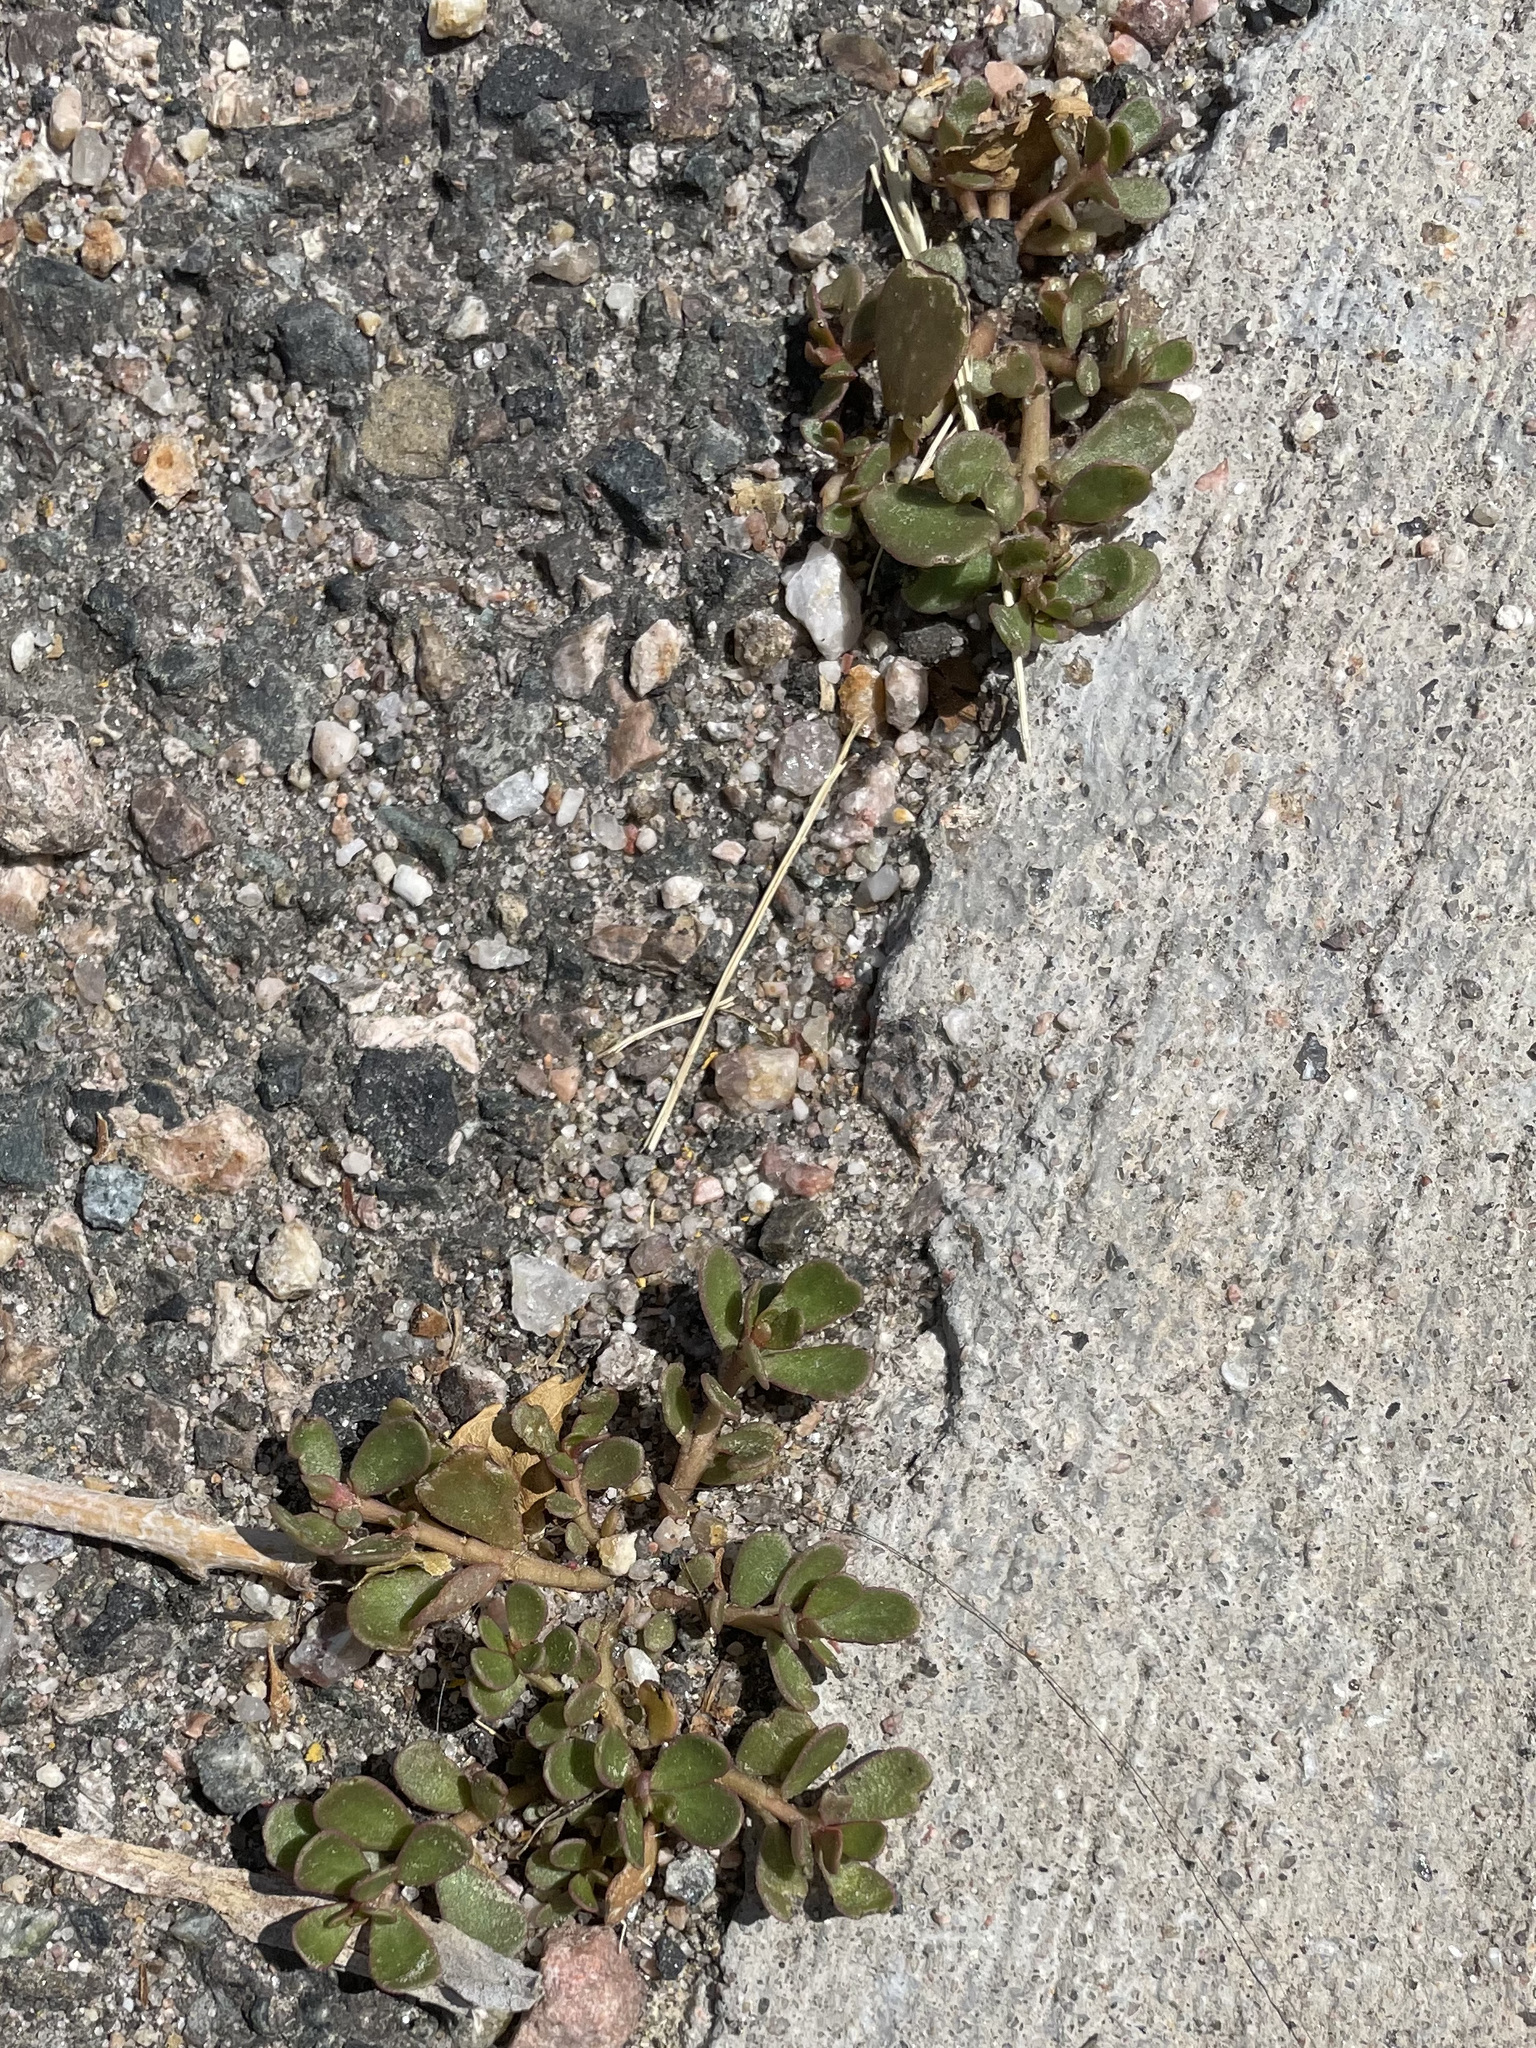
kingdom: Plantae
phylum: Tracheophyta
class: Magnoliopsida
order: Caryophyllales
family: Portulacaceae
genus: Portulaca
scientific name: Portulaca oleracea
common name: Common purslane
